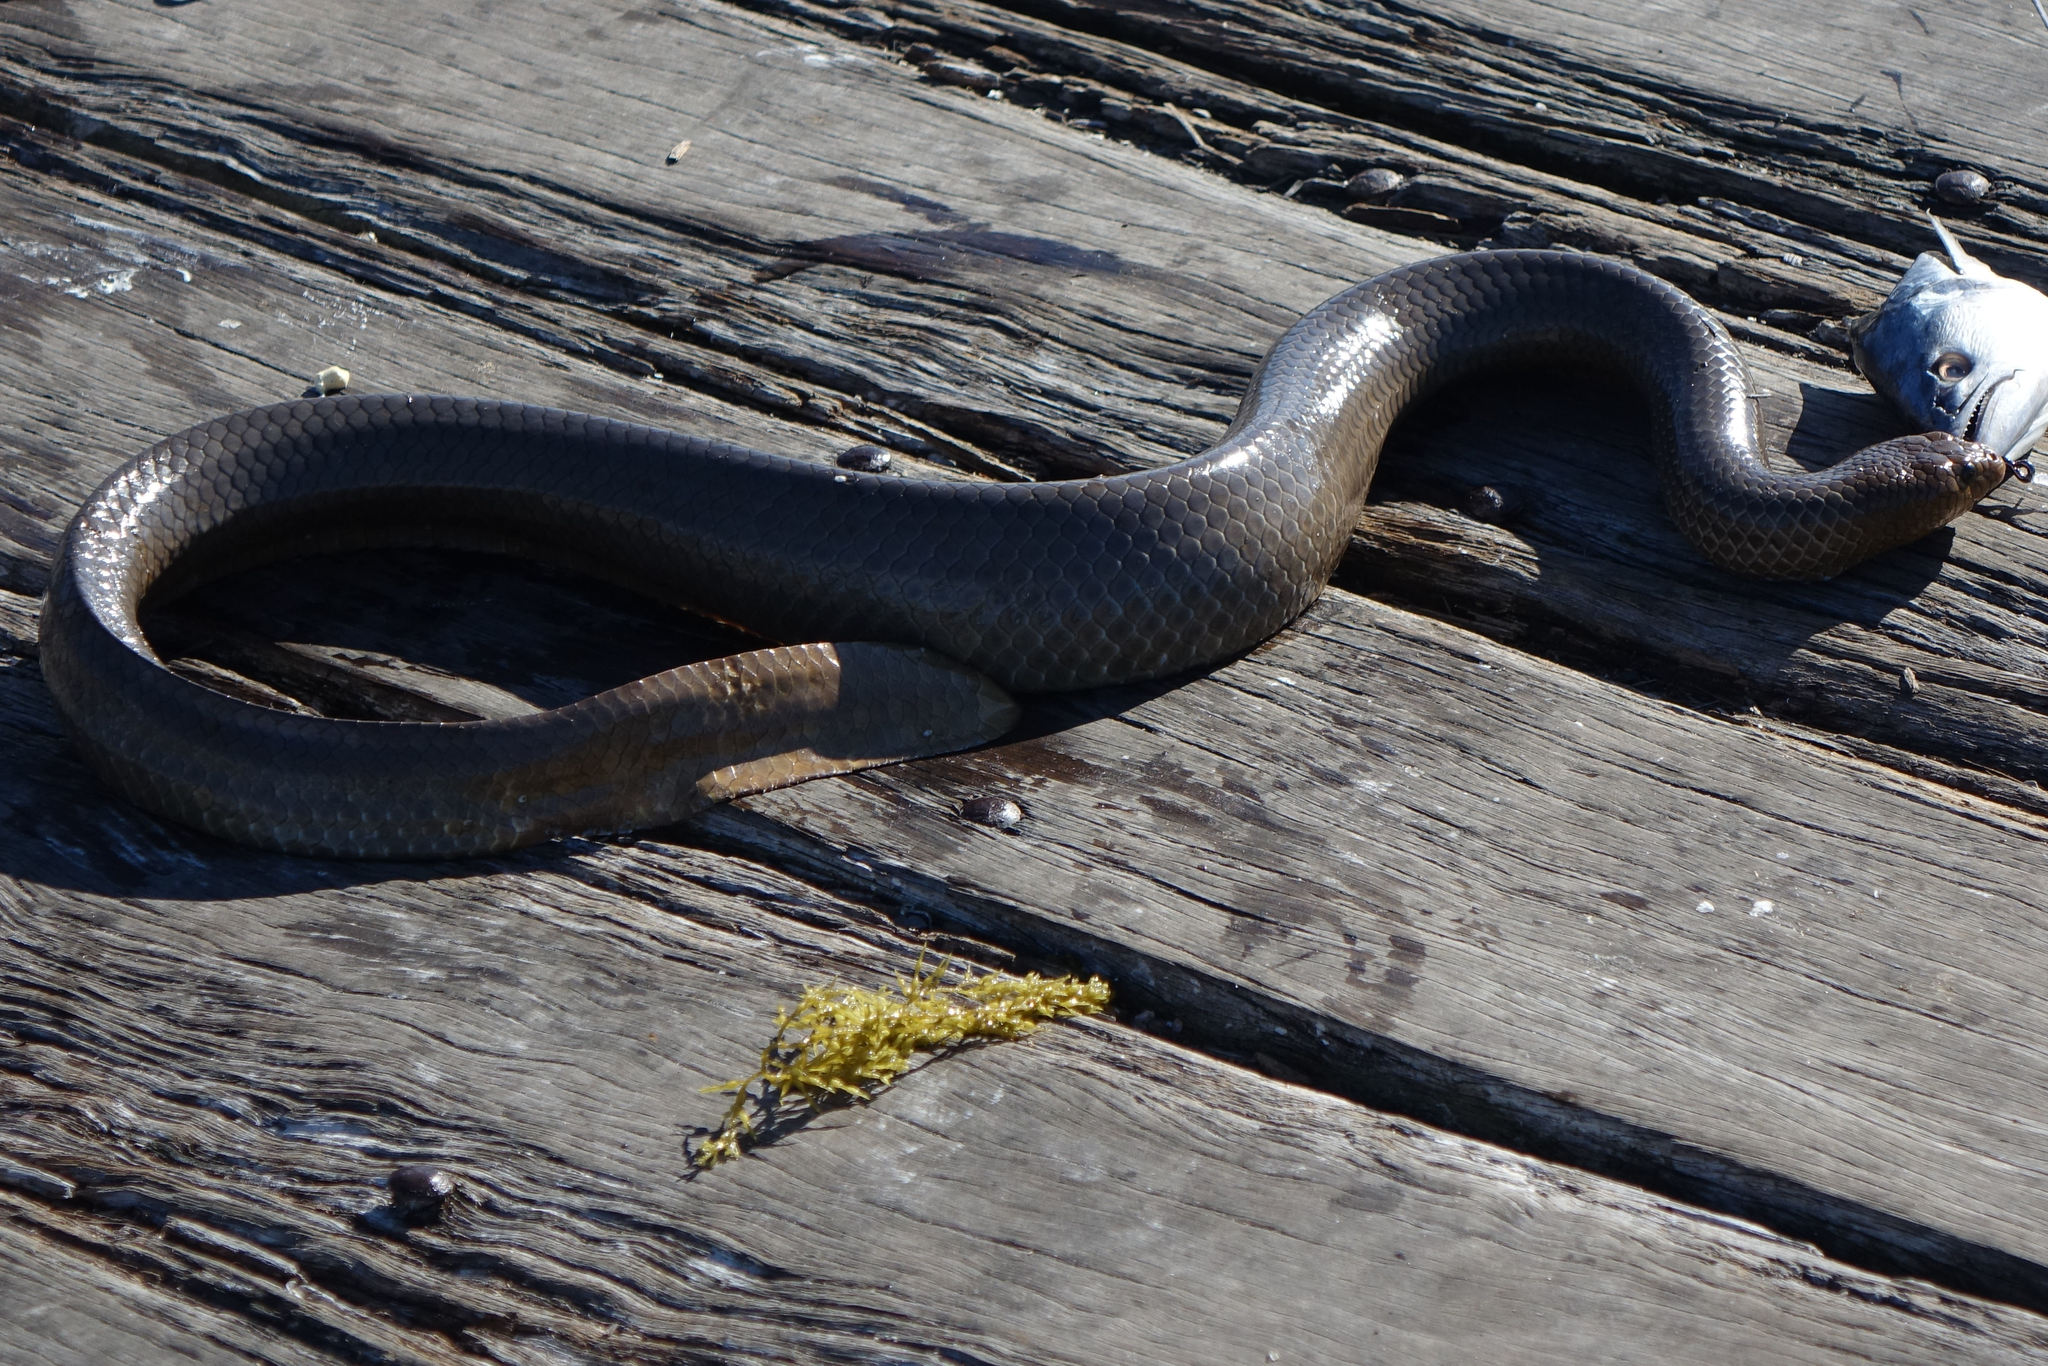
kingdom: Animalia
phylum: Chordata
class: Squamata
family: Elapidae
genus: Aipysurus
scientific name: Aipysurus laevis
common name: Olive sea snake
